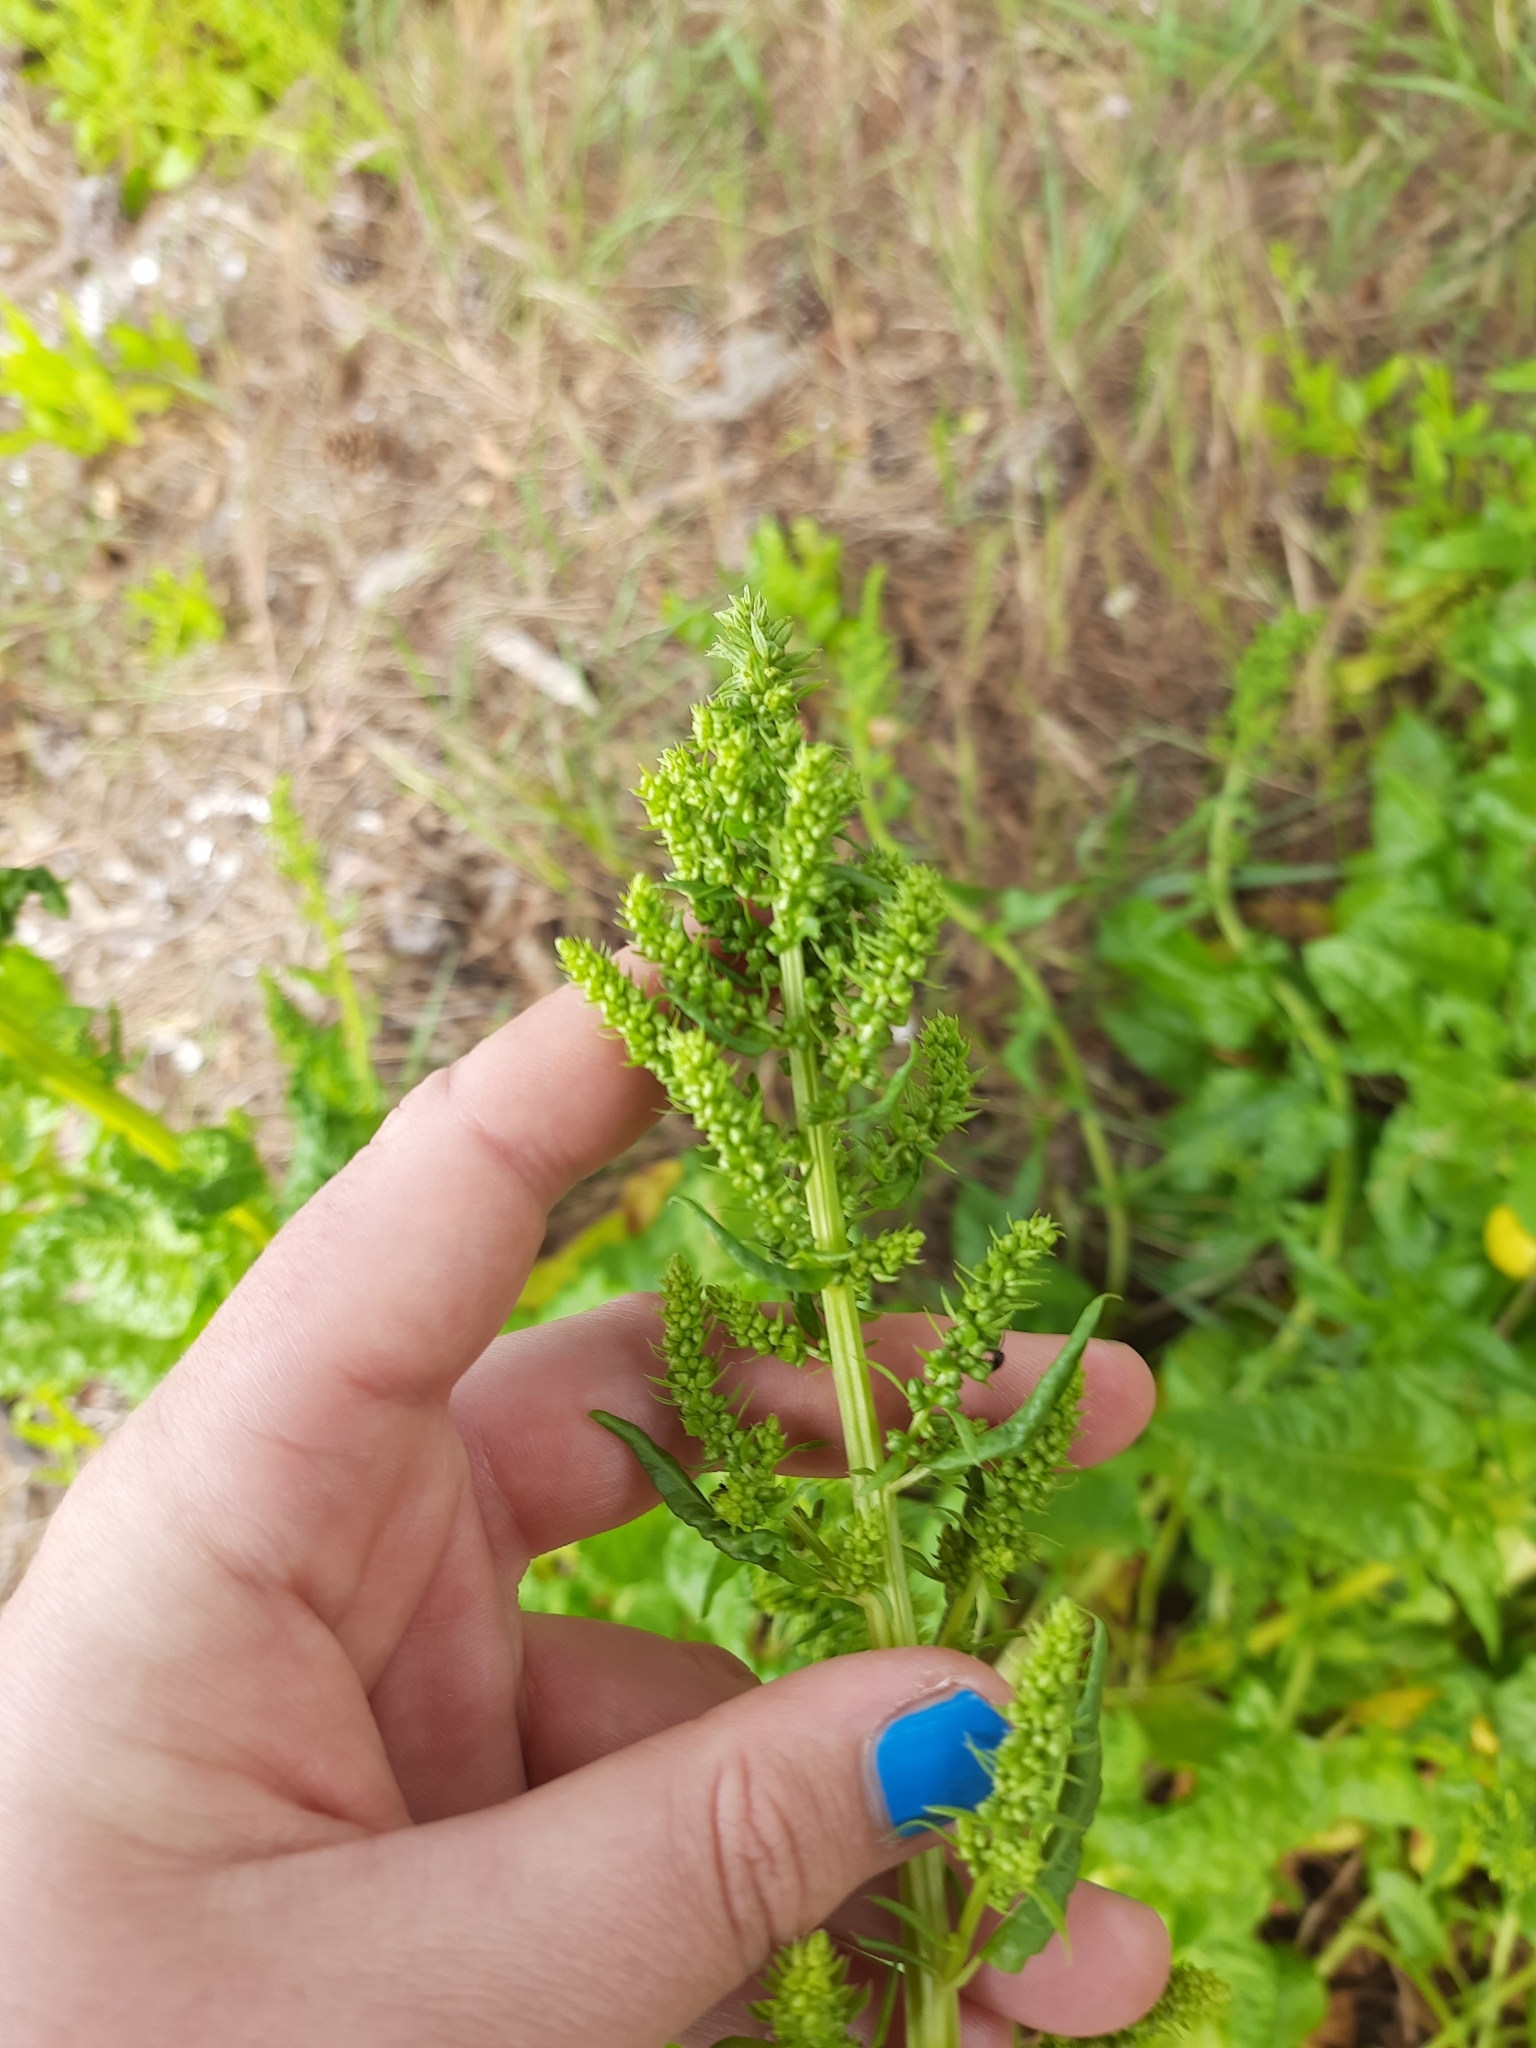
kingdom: Plantae
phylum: Tracheophyta
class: Magnoliopsida
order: Caryophyllales
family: Amaranthaceae
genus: Beta
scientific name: Beta vulgaris
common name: Beet
